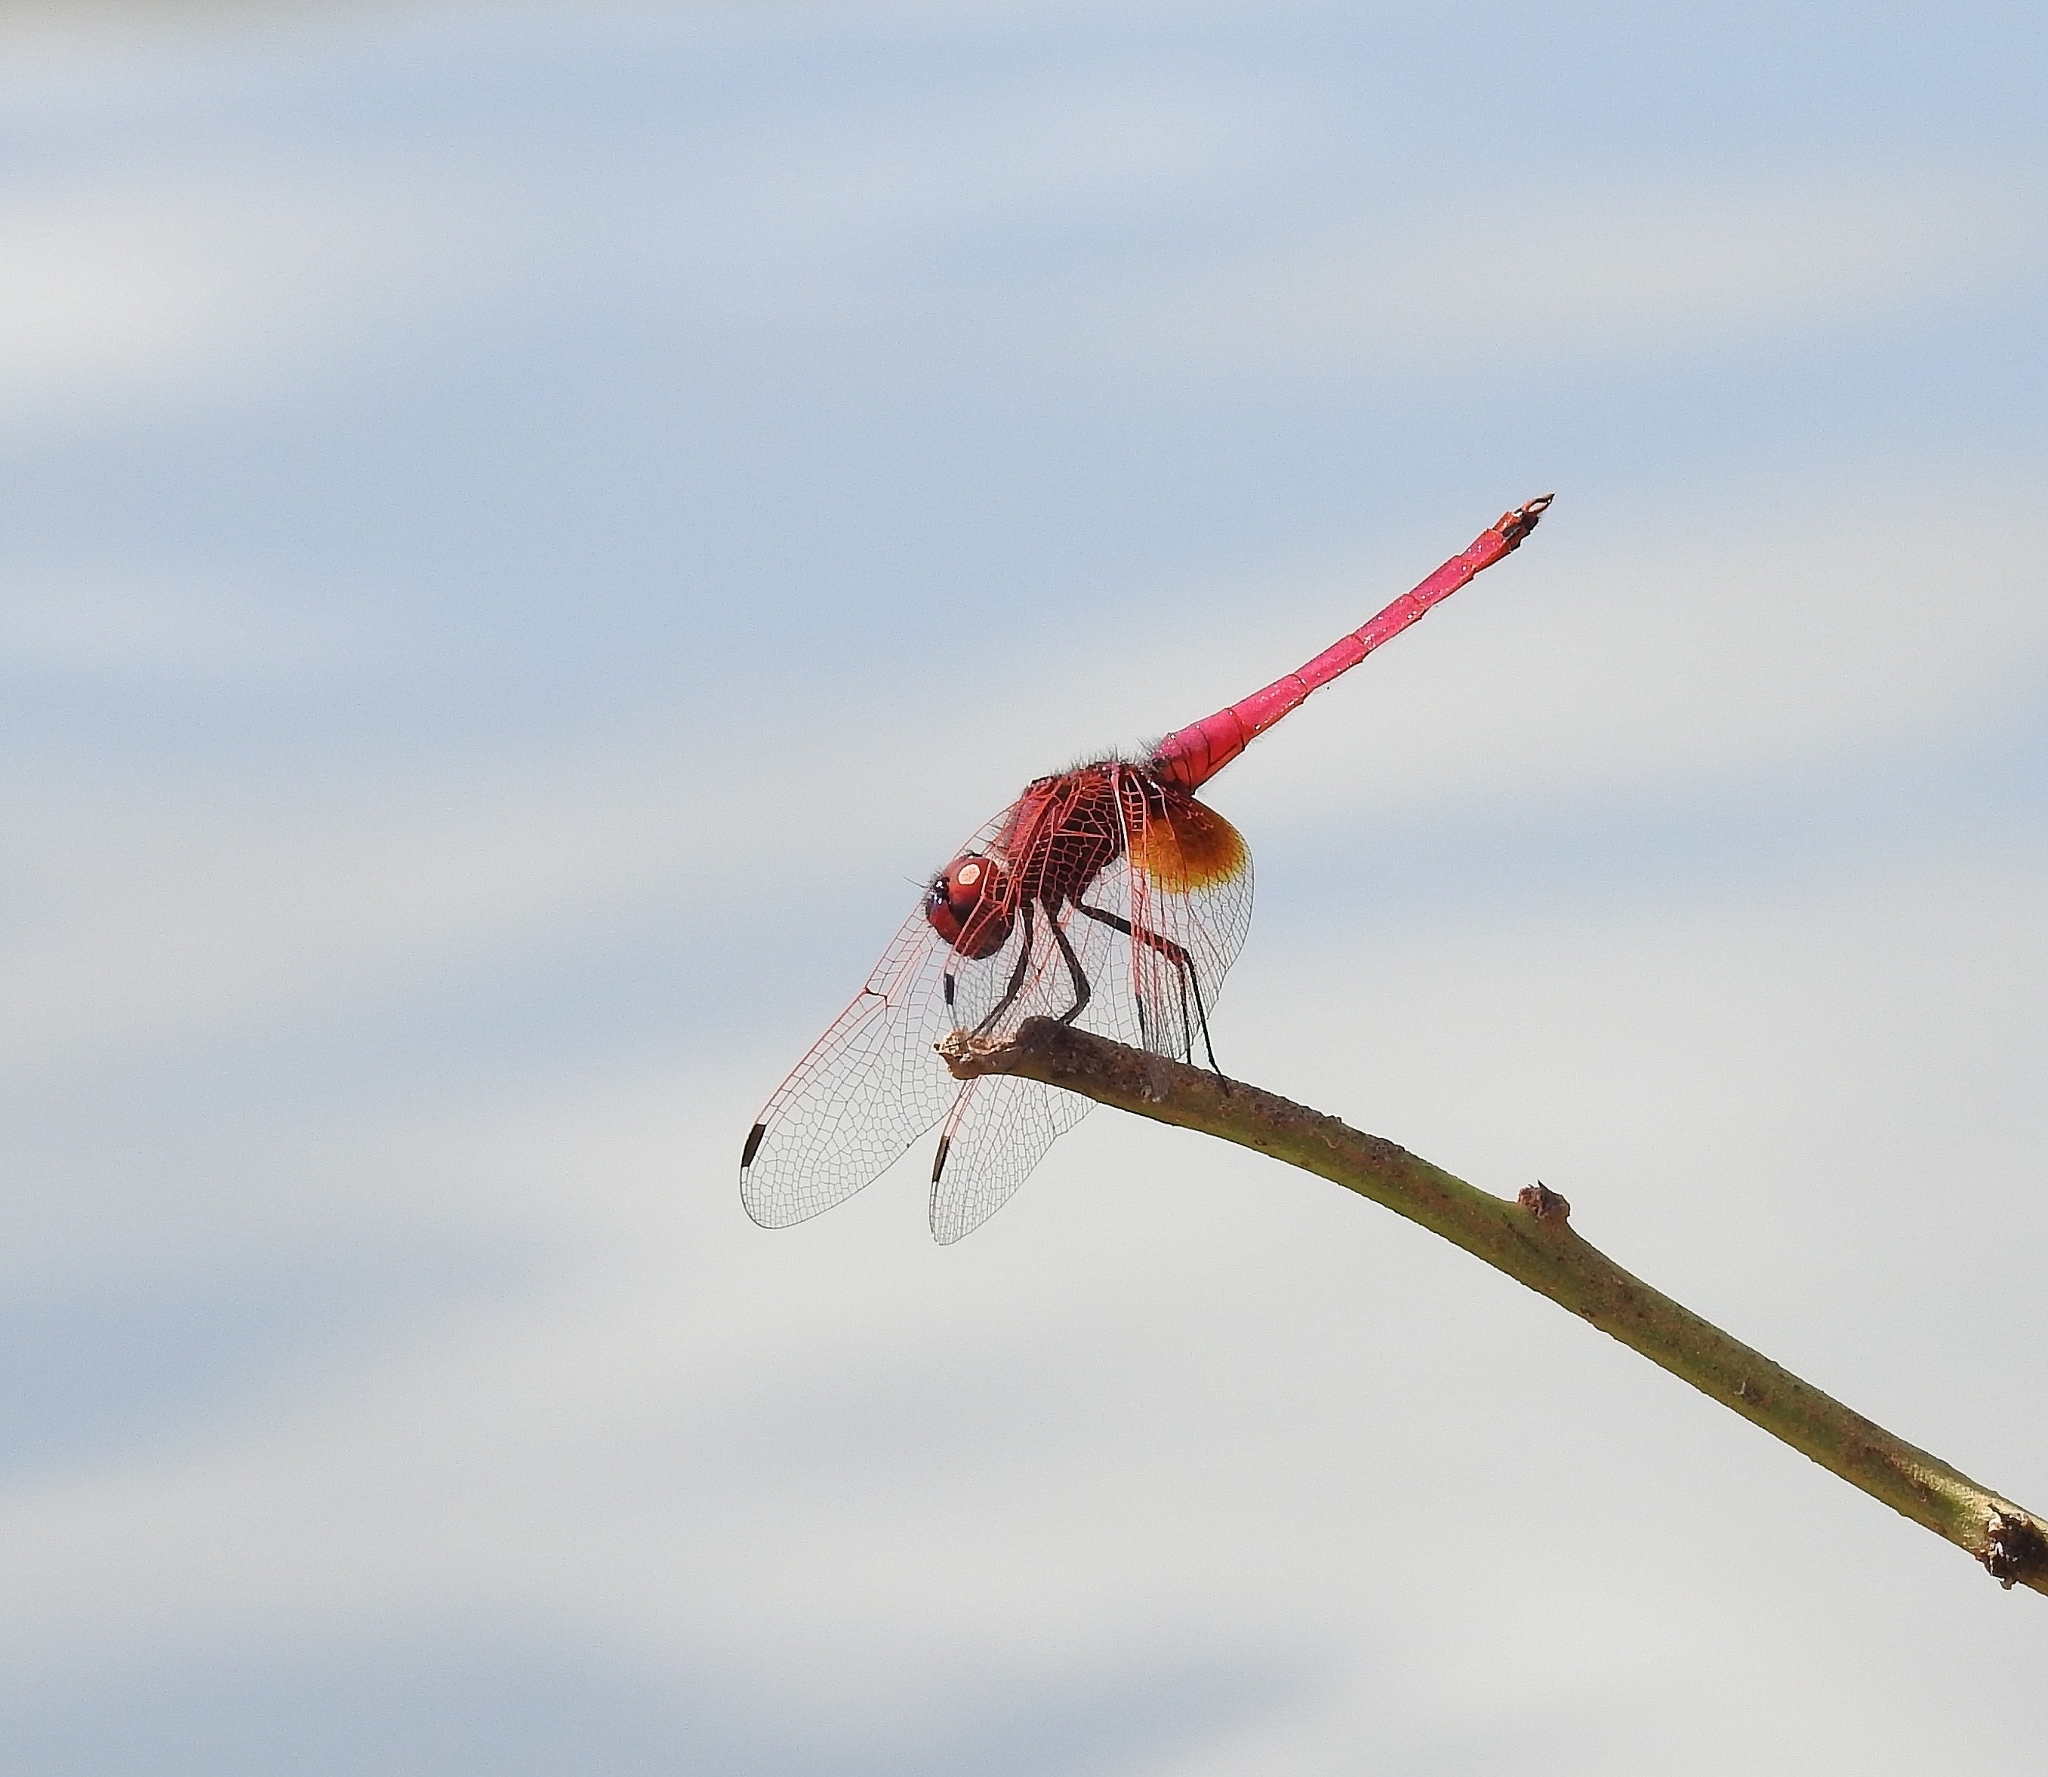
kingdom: Animalia
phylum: Arthropoda
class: Insecta
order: Odonata
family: Libellulidae
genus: Trithemis
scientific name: Trithemis aurora
